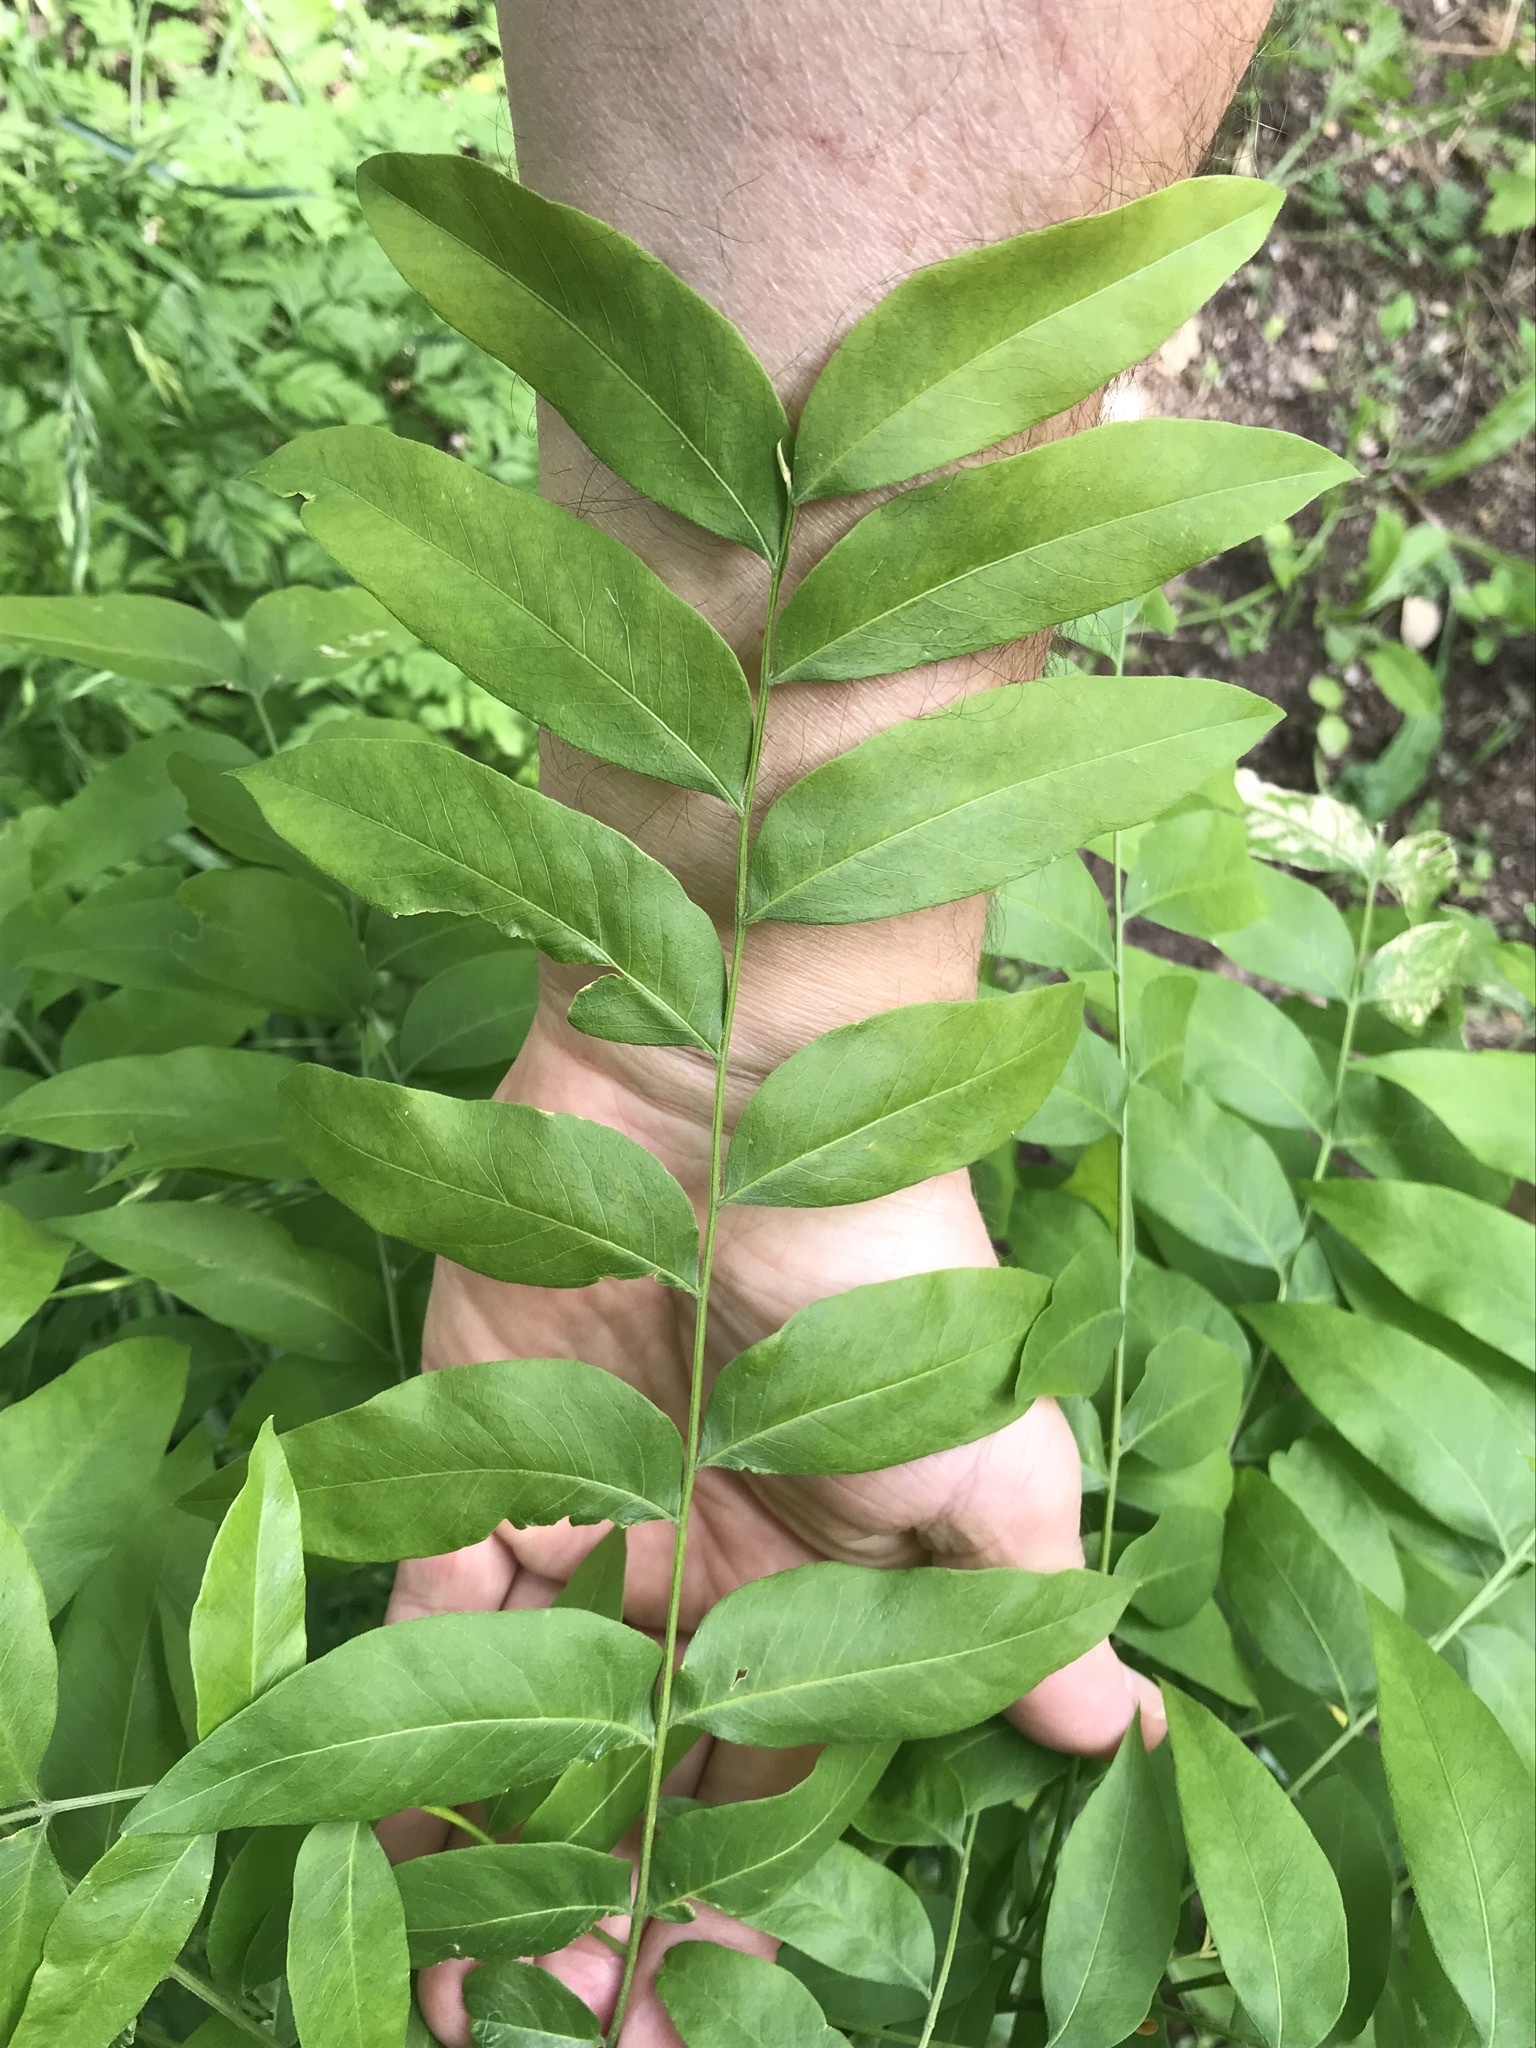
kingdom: Plantae
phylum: Tracheophyta
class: Magnoliopsida
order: Sapindales
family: Sapindaceae
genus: Sapindus
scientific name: Sapindus drummondii
